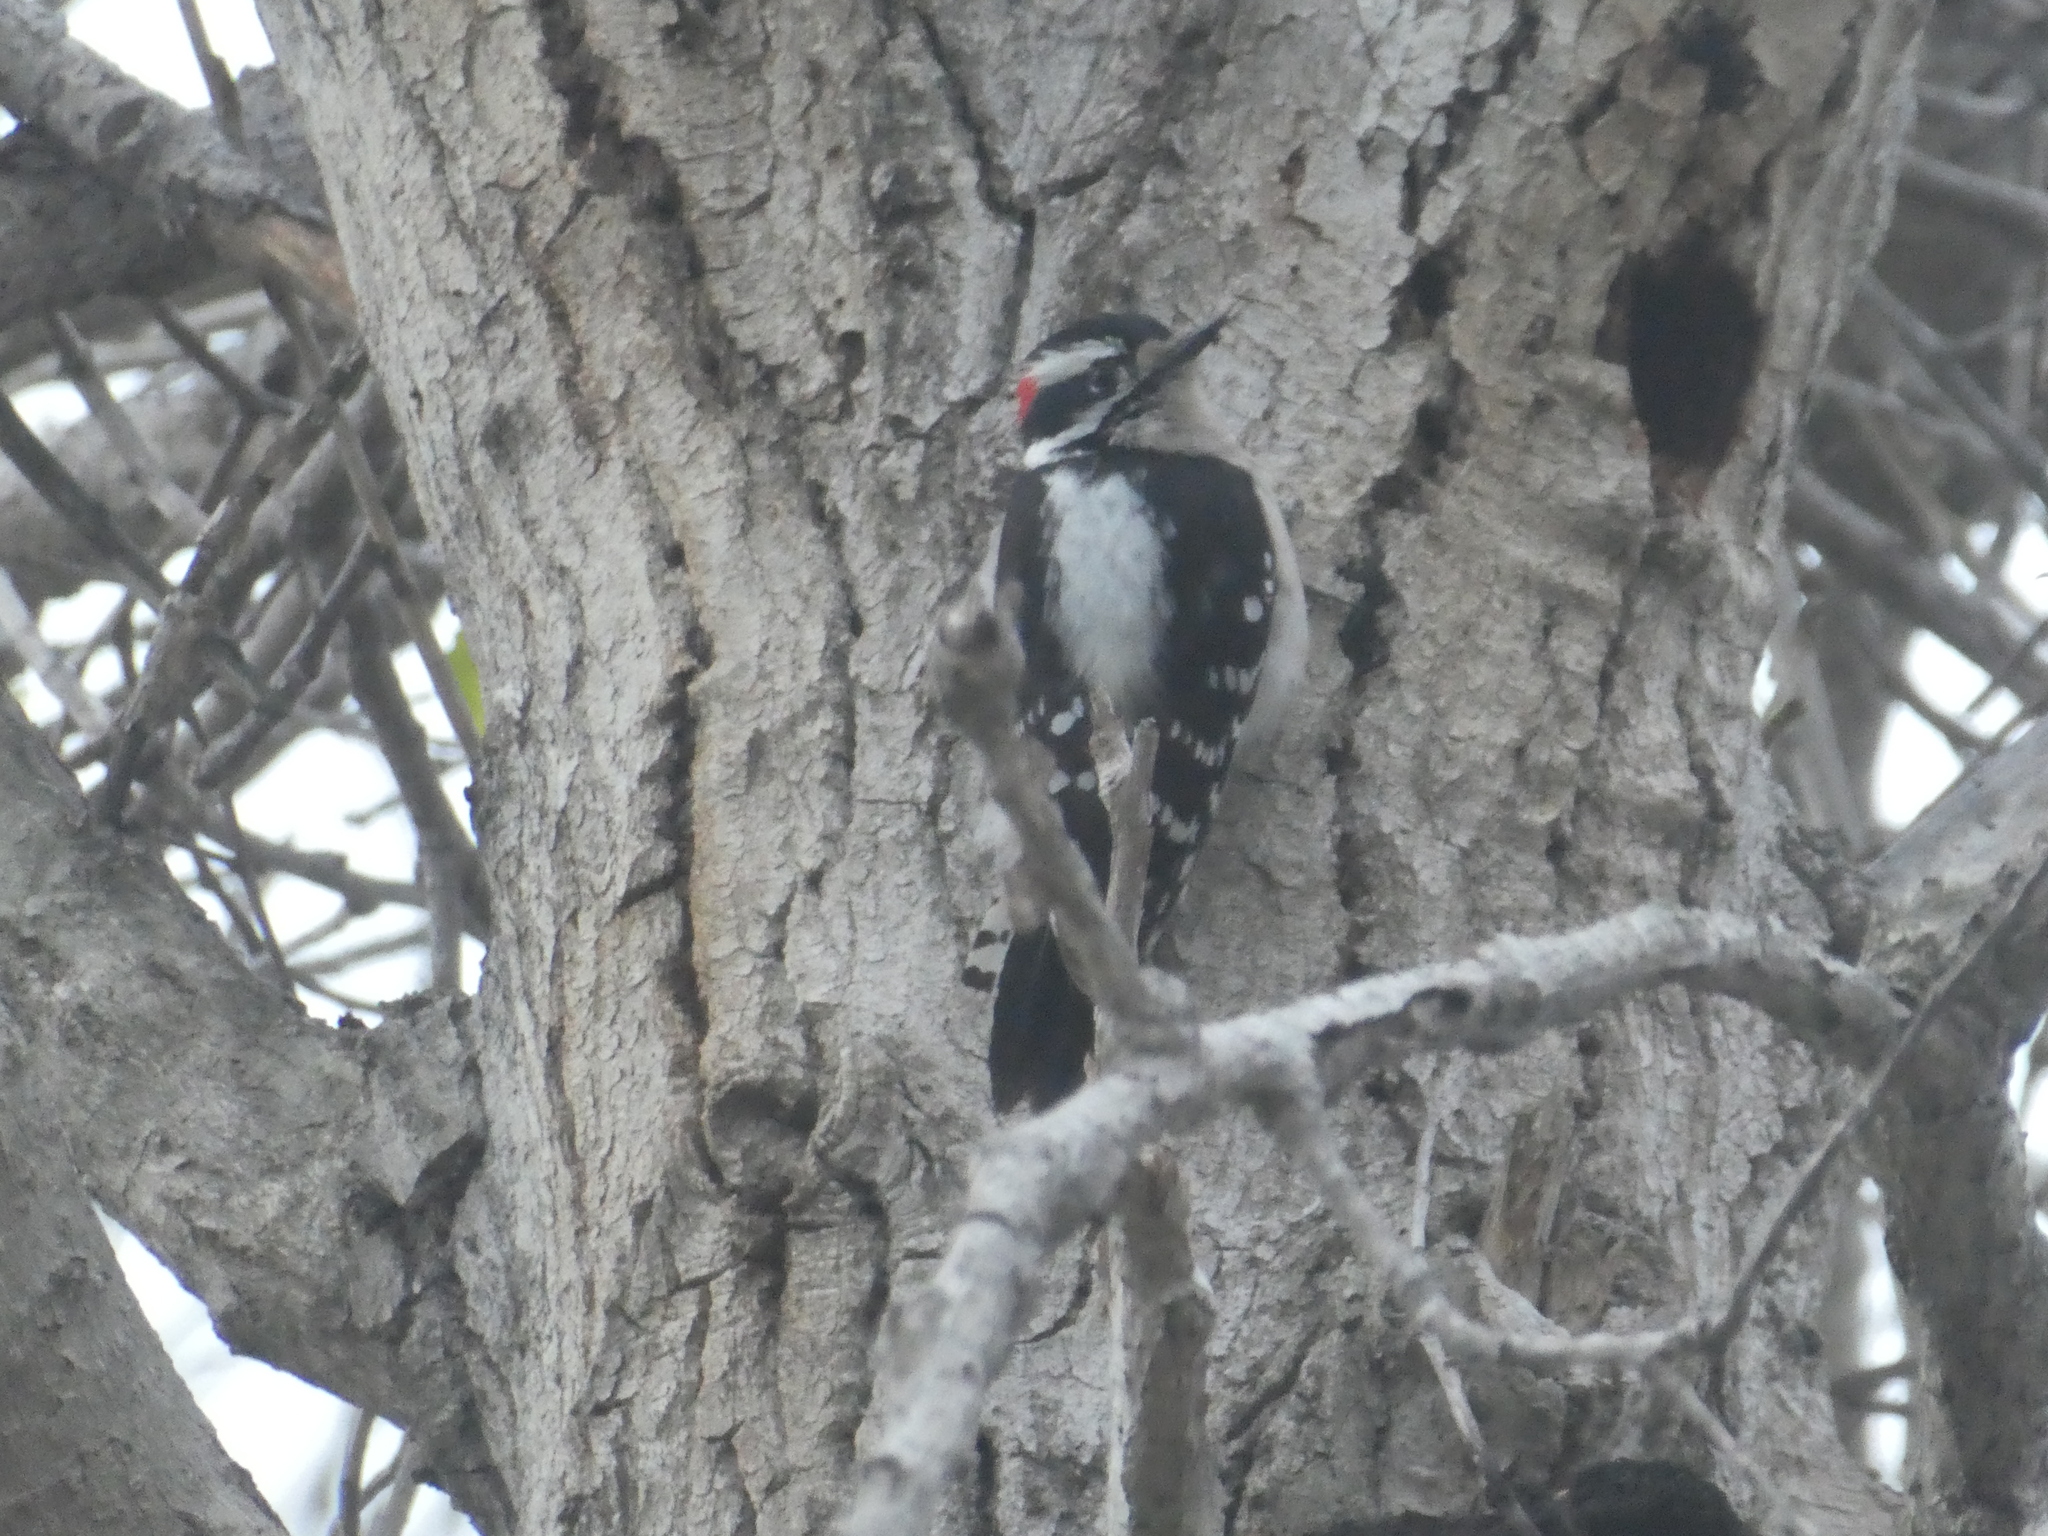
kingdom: Animalia
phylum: Chordata
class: Aves
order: Piciformes
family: Picidae
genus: Dryobates
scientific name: Dryobates pubescens
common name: Downy woodpecker
